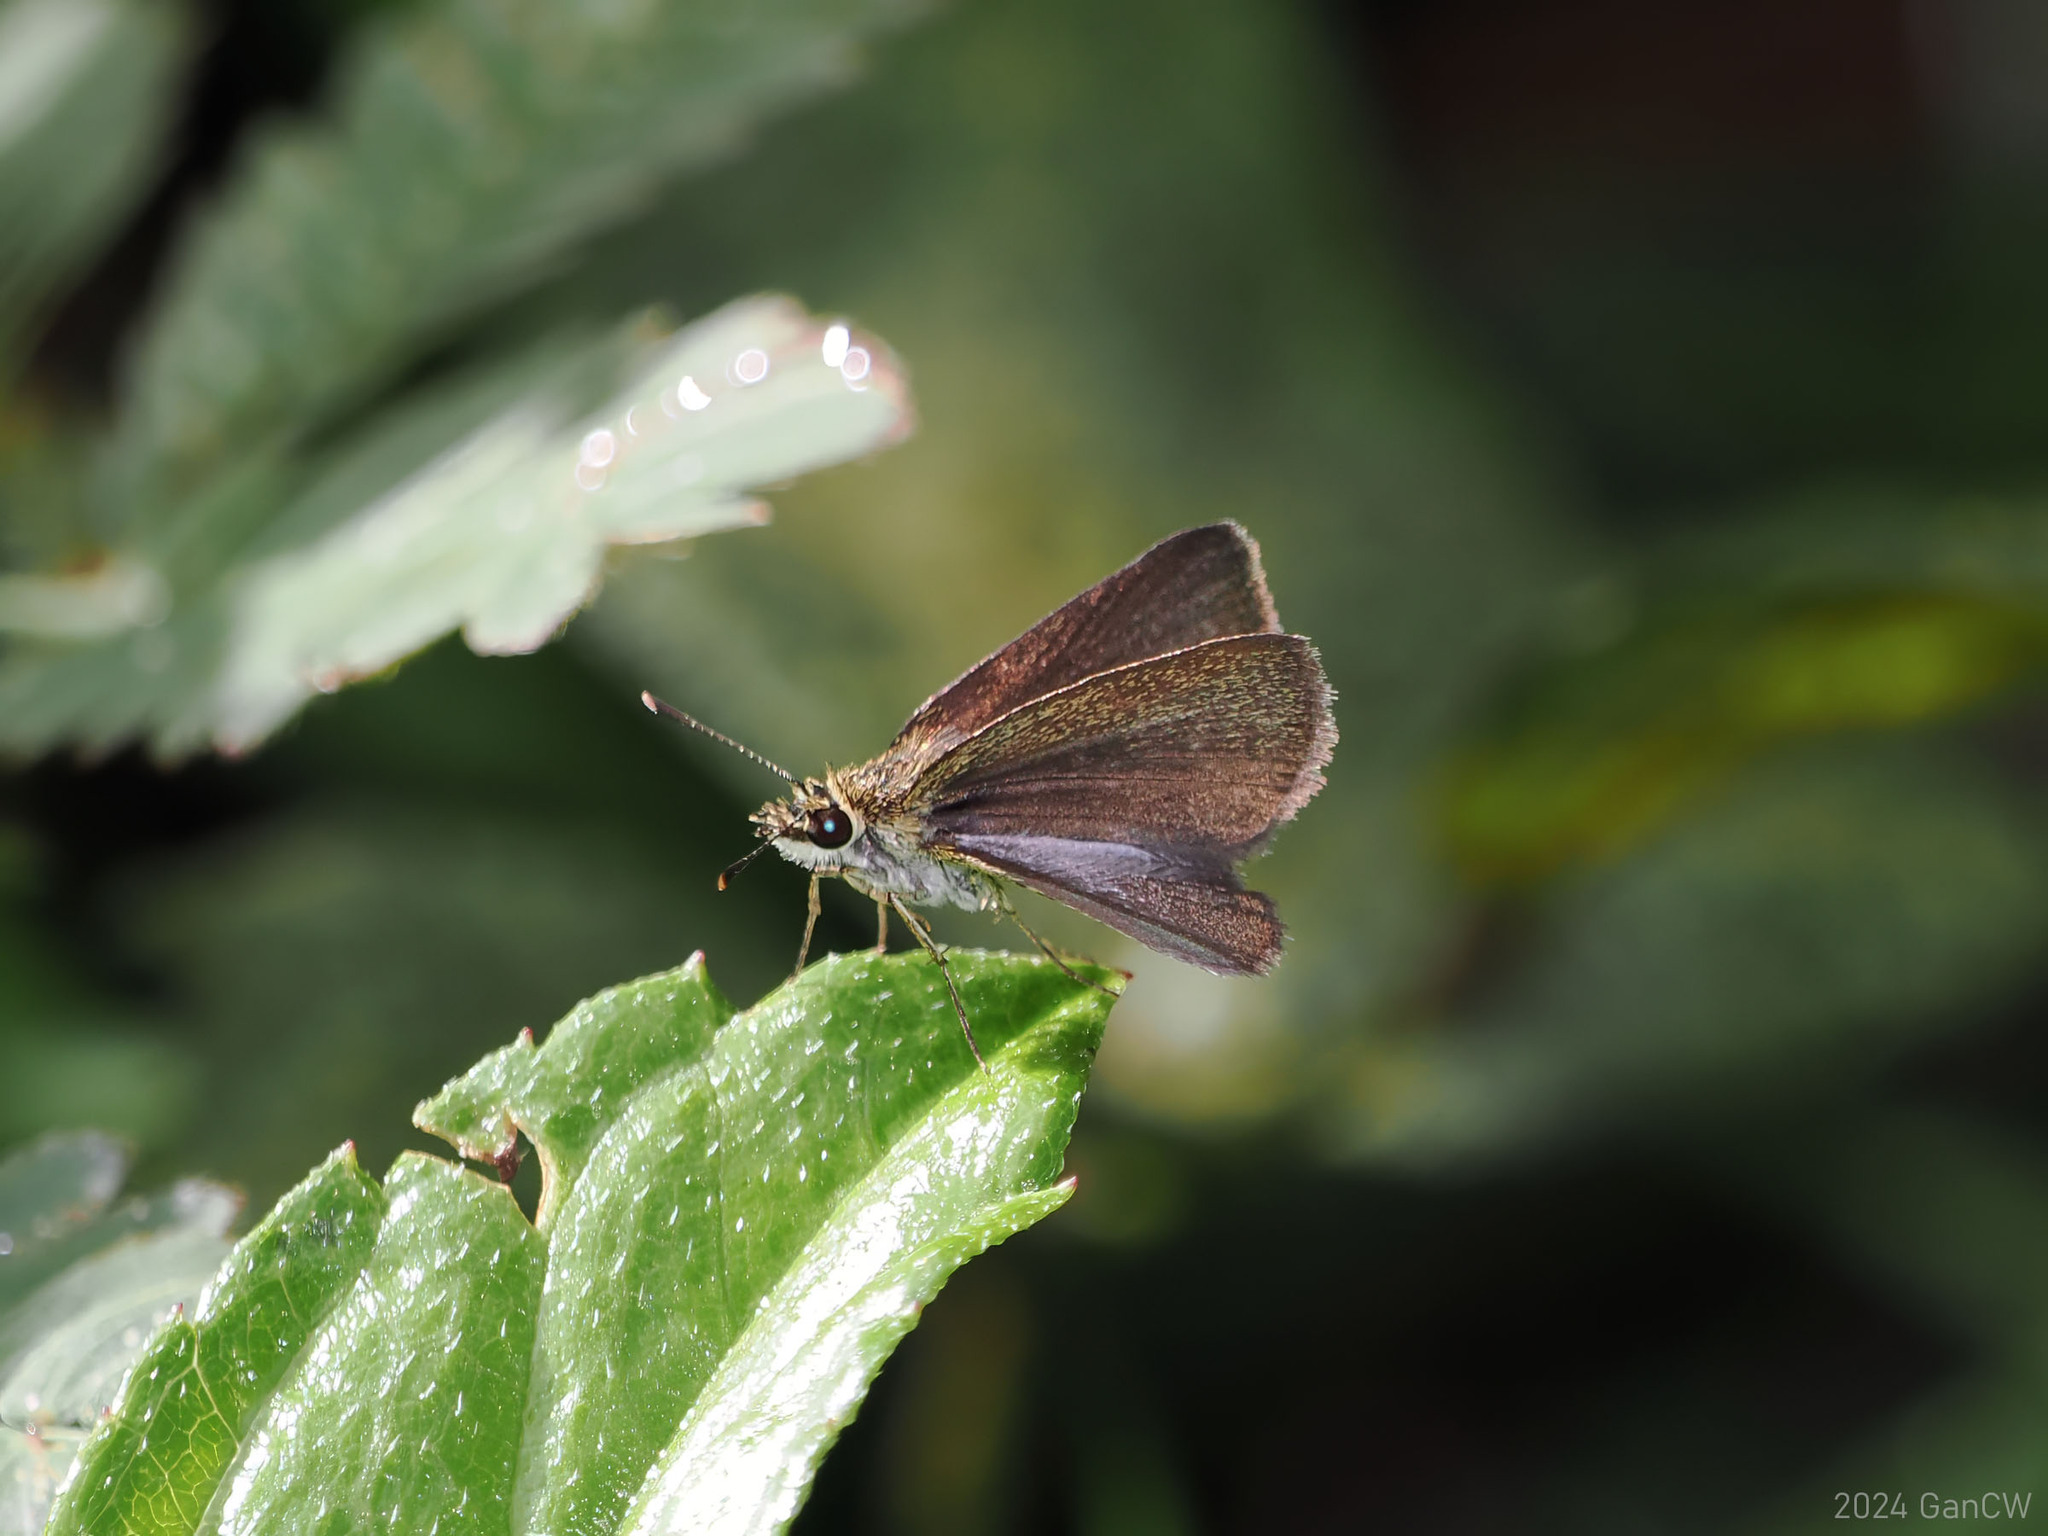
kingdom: Animalia
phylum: Arthropoda
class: Insecta
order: Lepidoptera
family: Hesperiidae
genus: Aeromachus
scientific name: Aeromachus plumbeola
